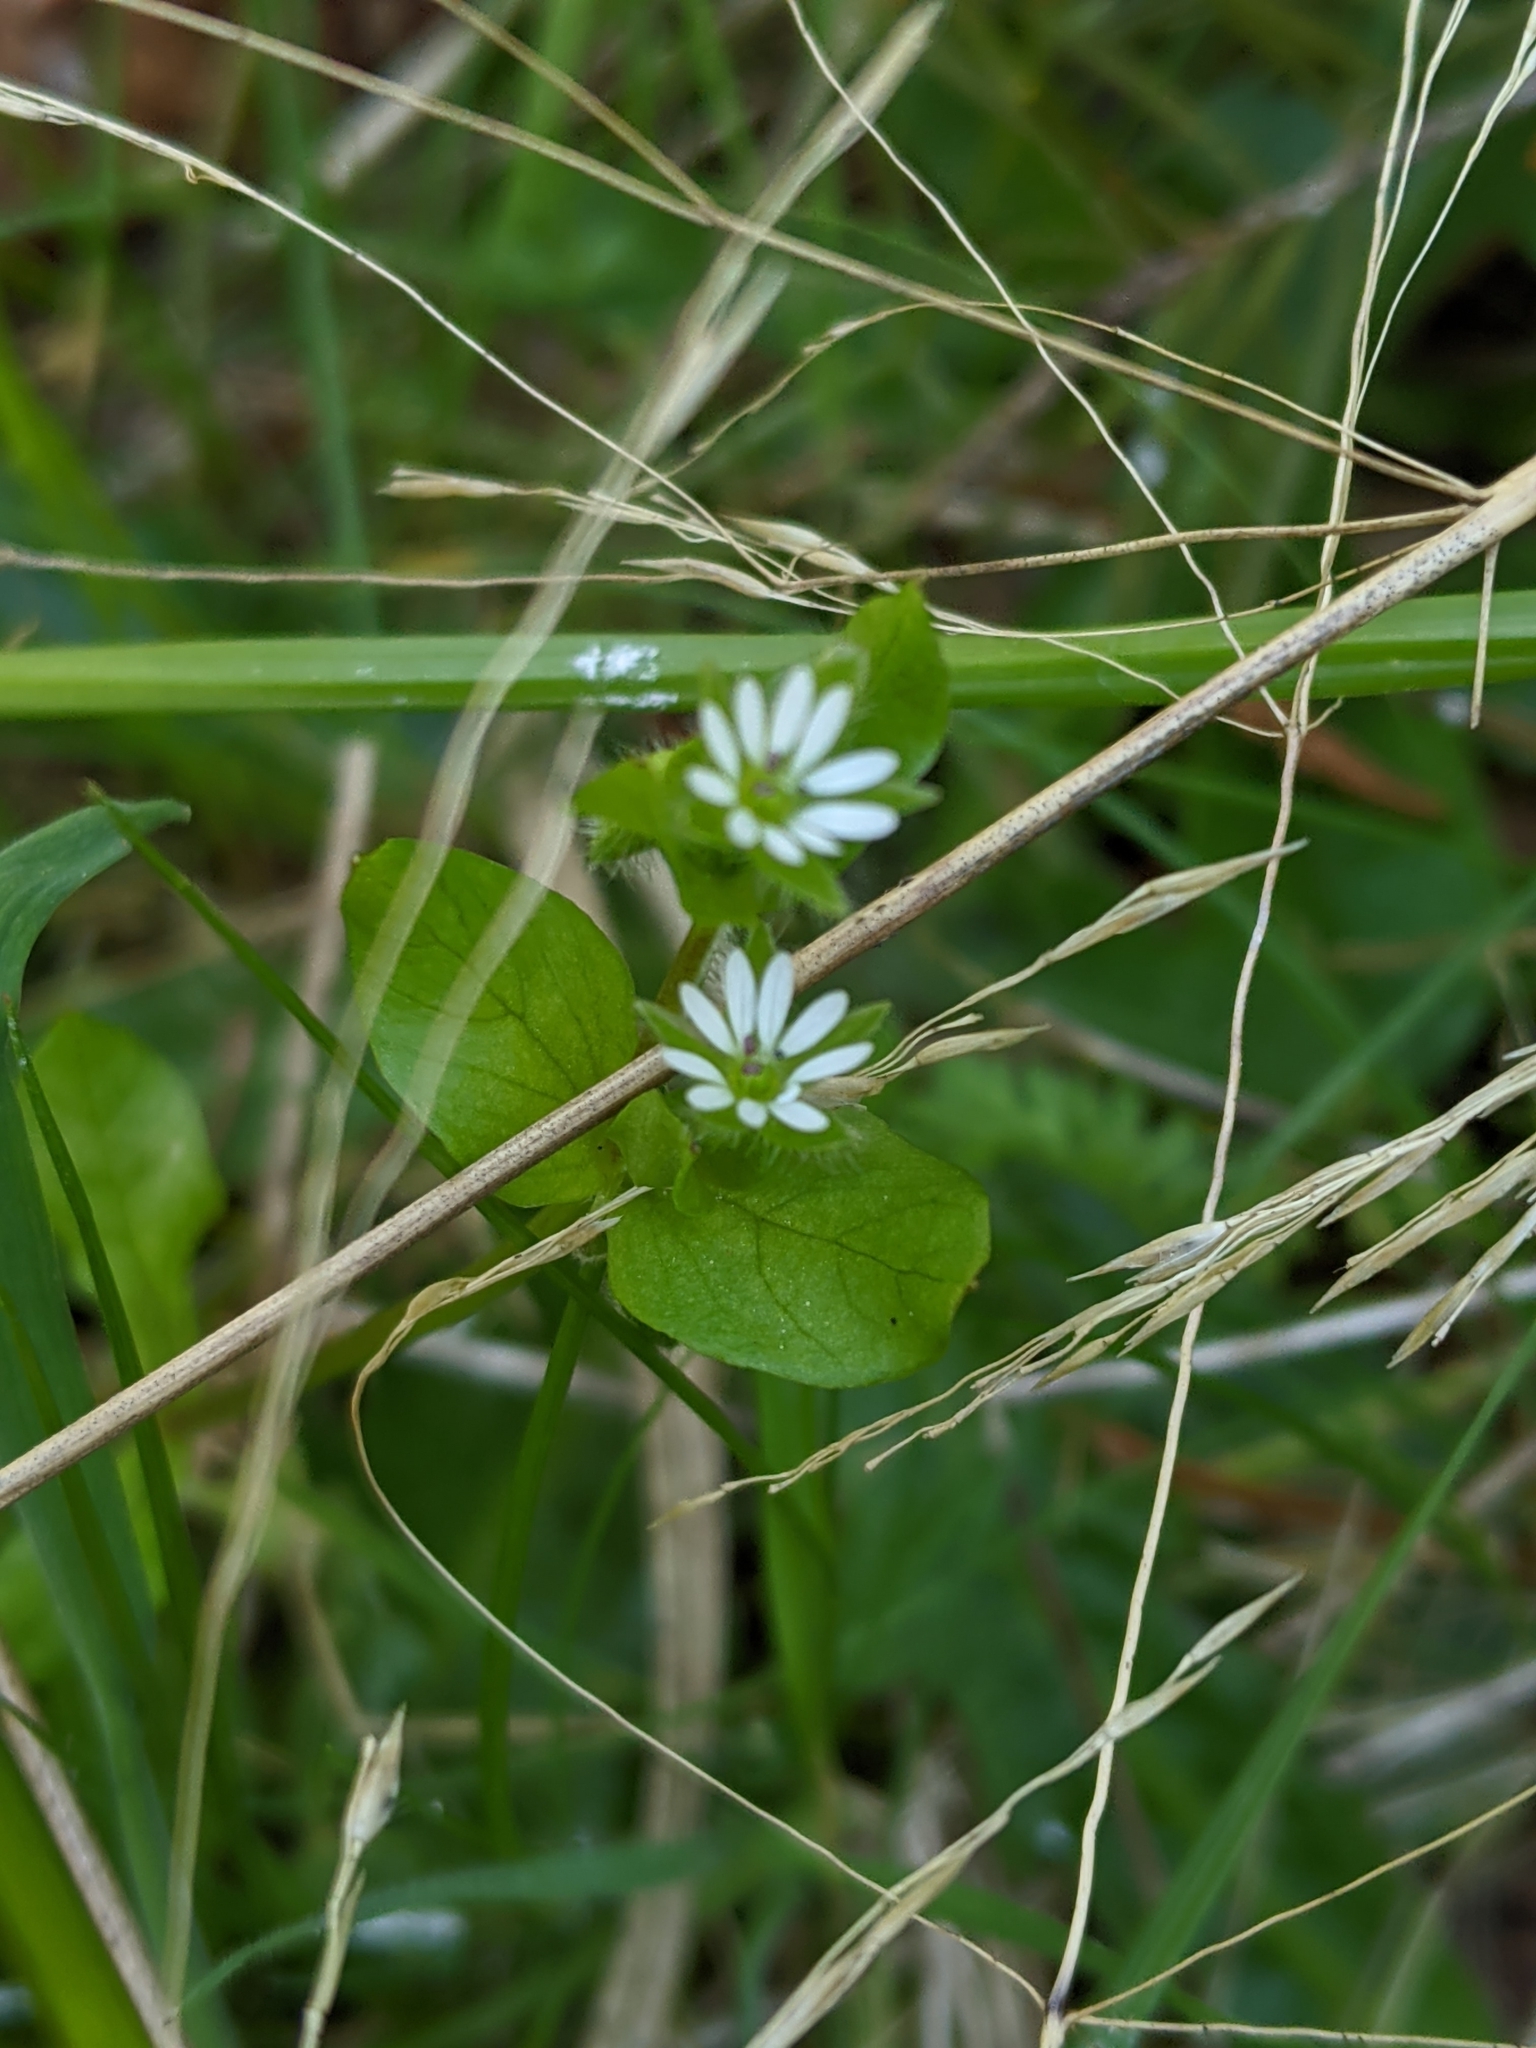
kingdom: Plantae
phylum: Tracheophyta
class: Magnoliopsida
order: Caryophyllales
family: Caryophyllaceae
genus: Stellaria
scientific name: Stellaria media
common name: Common chickweed
